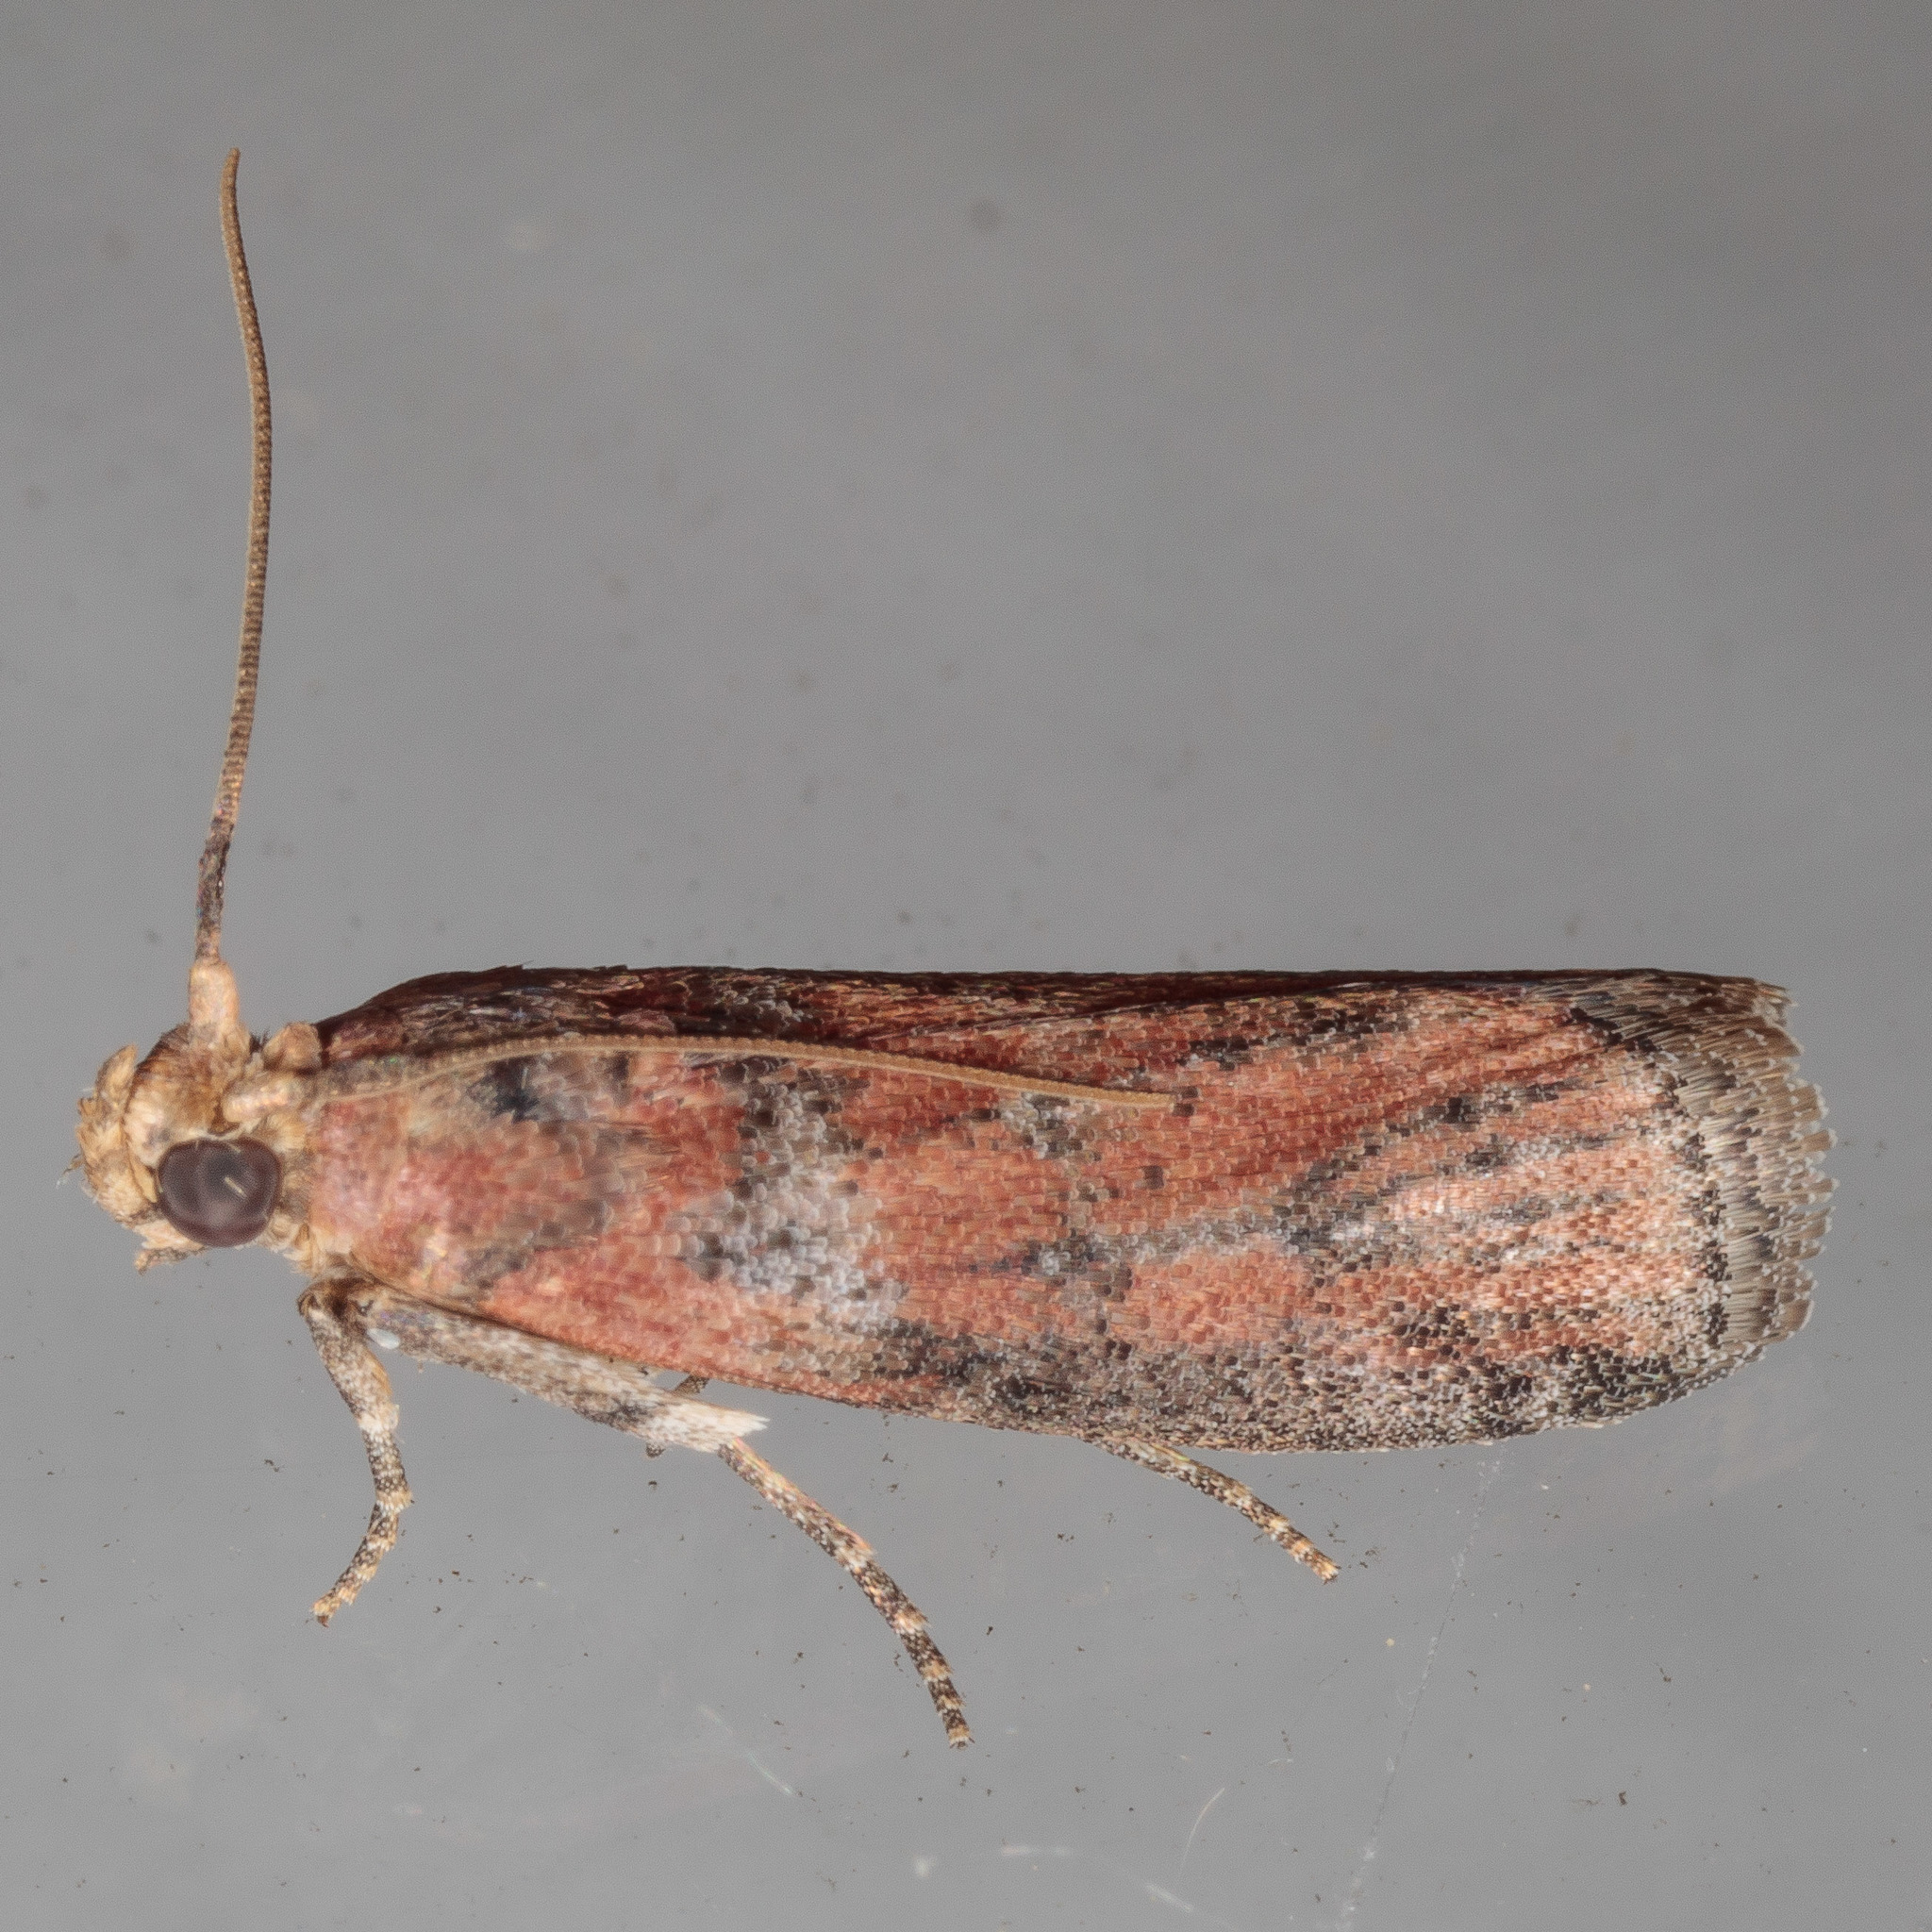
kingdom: Animalia
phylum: Arthropoda
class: Insecta
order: Lepidoptera
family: Pyralidae
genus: Sciota
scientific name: Sciota
